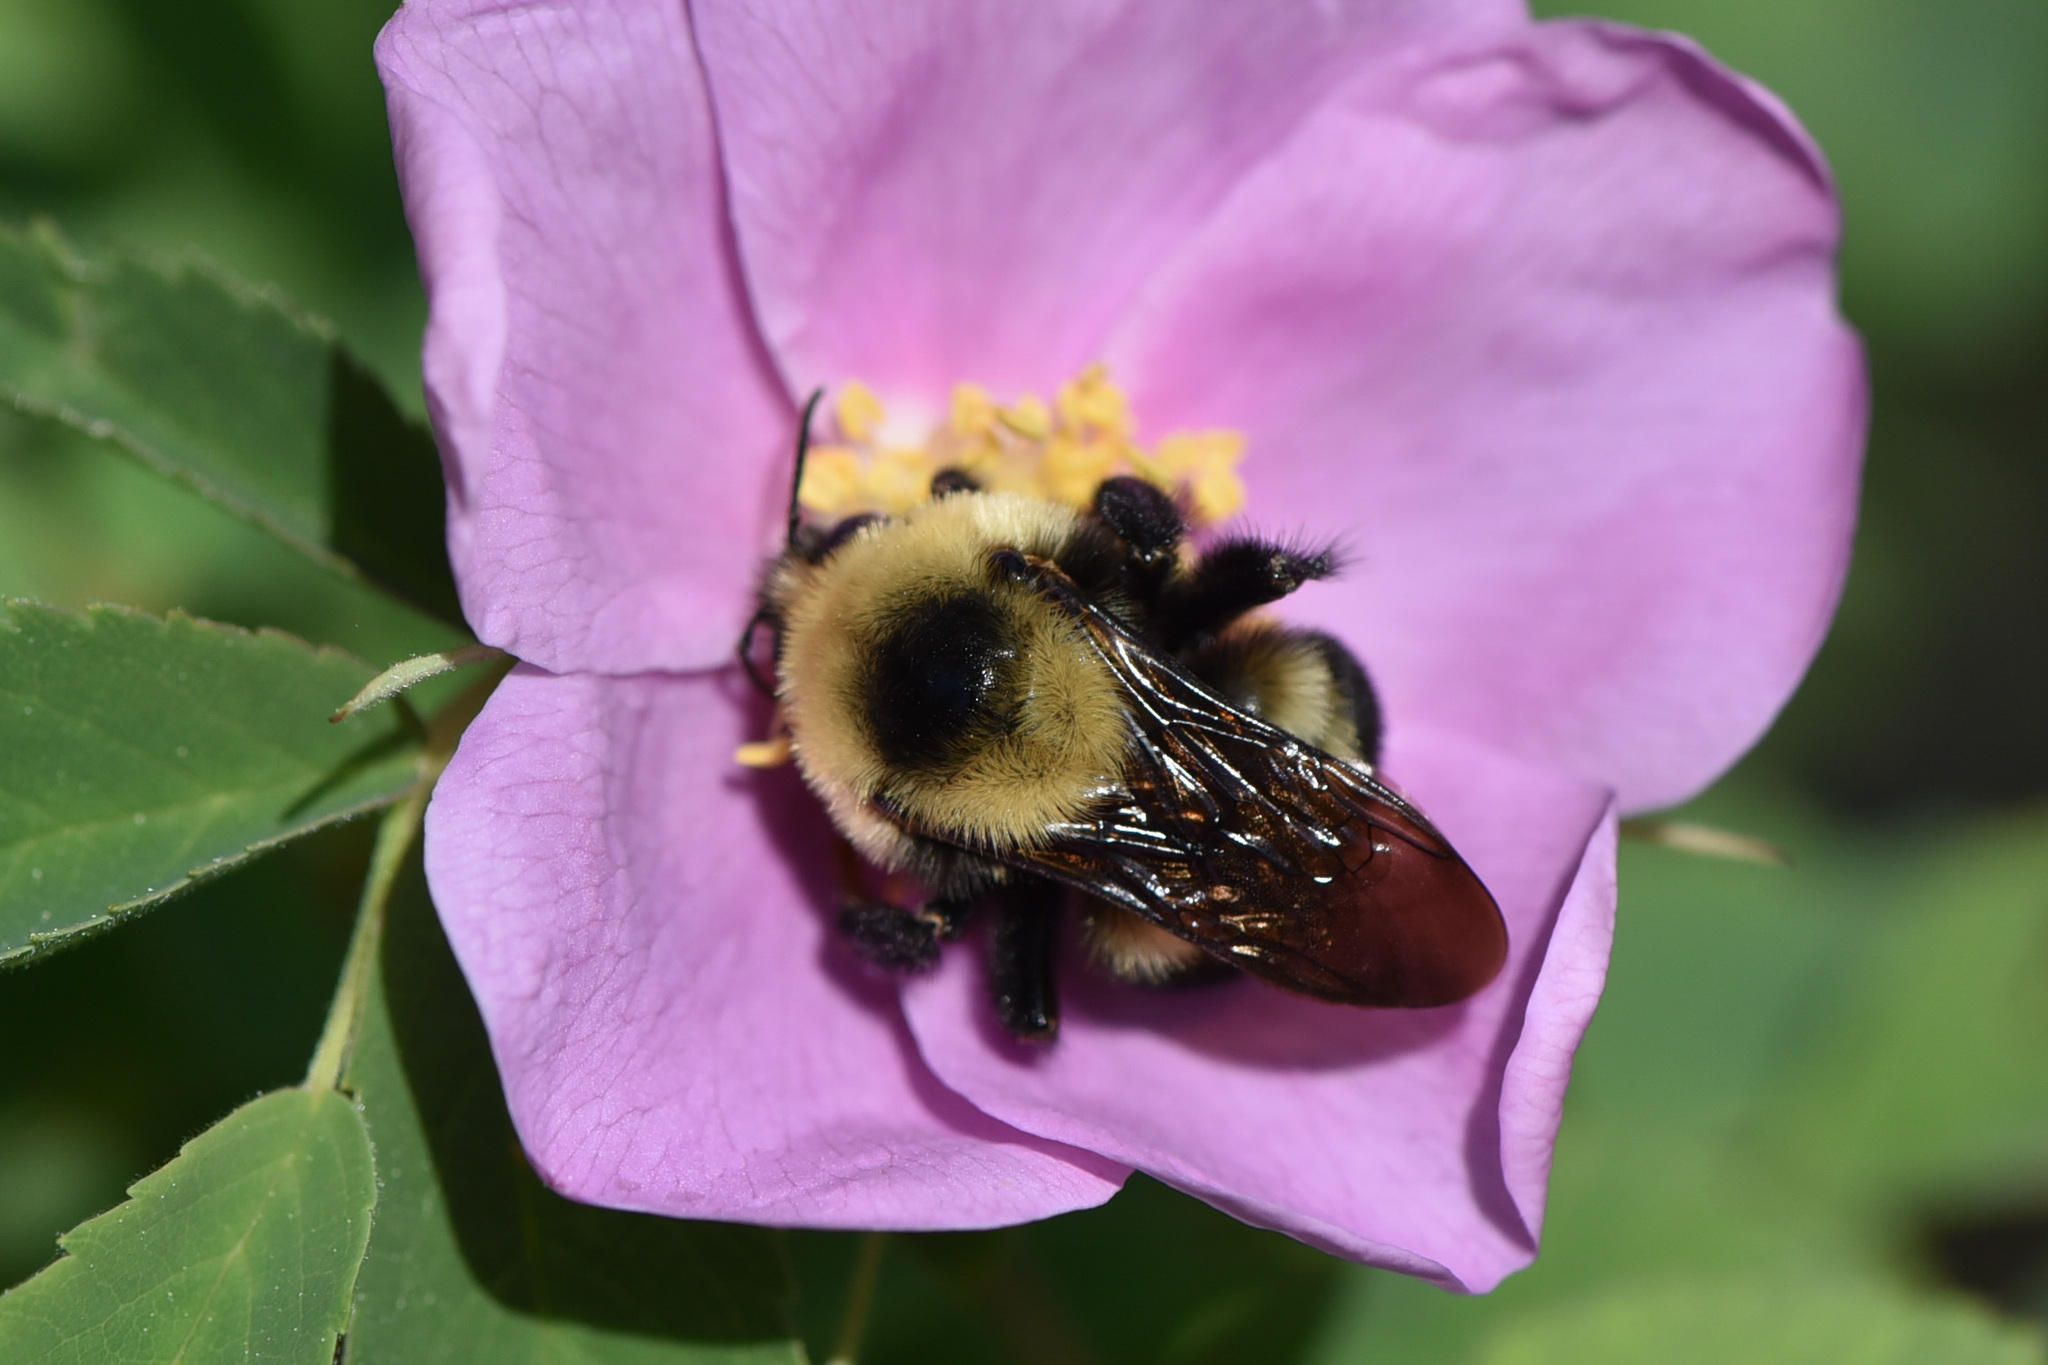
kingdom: Animalia
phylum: Arthropoda
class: Insecta
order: Hymenoptera
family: Apidae
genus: Bombus
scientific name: Bombus rufocinctus
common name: Red-belted bumble bee
